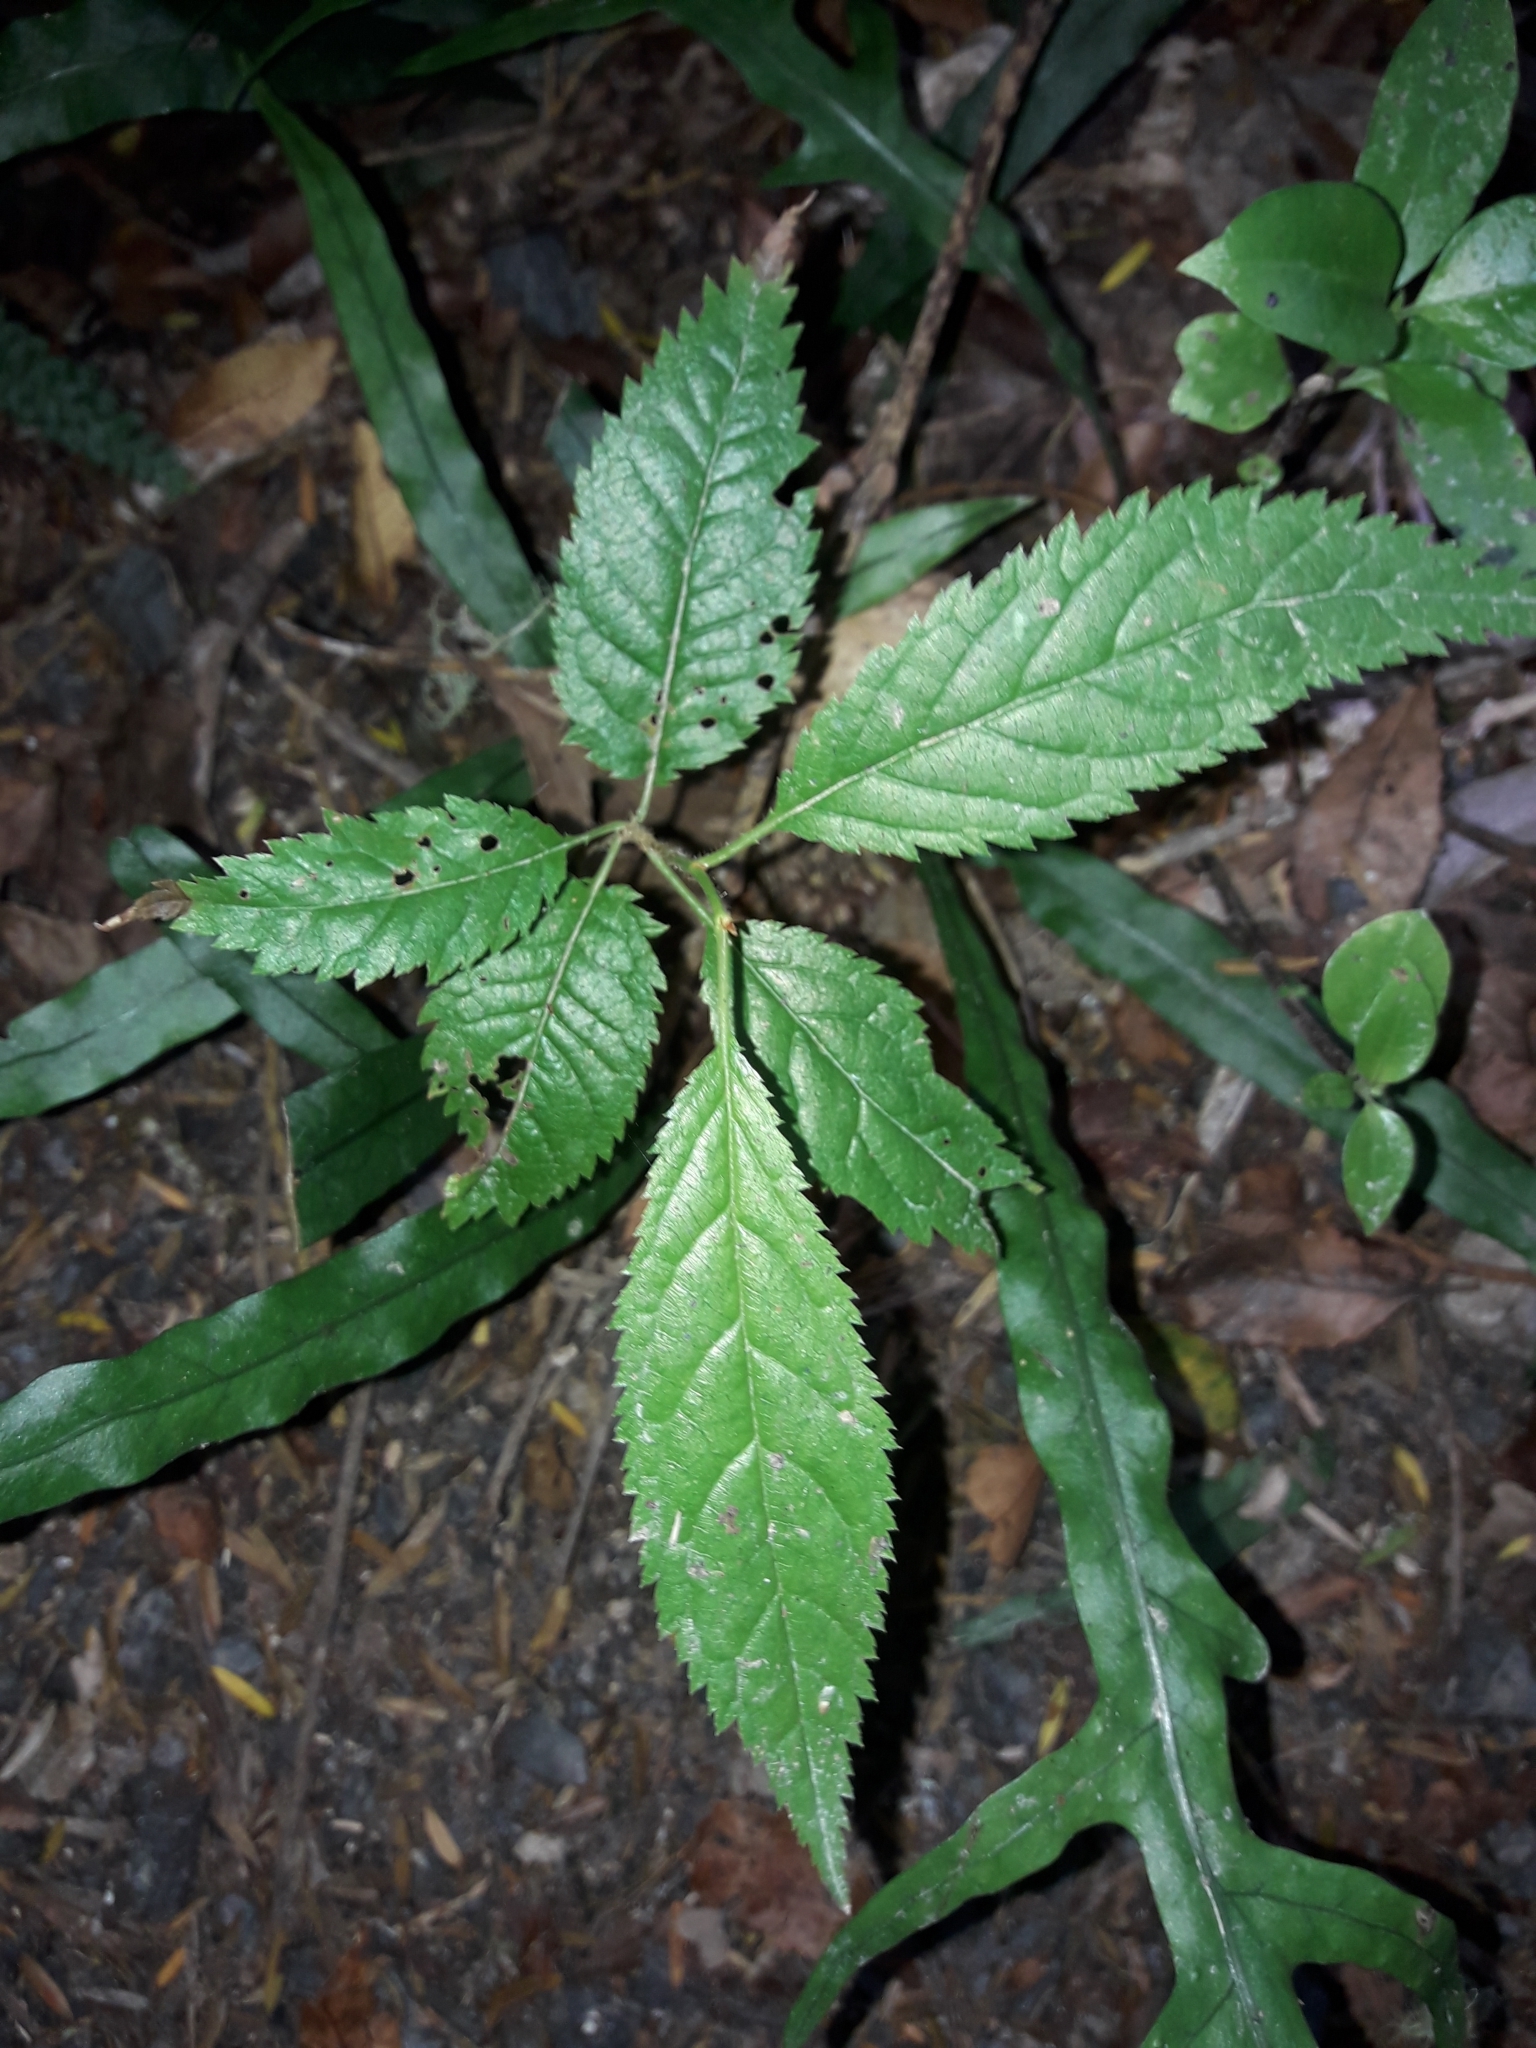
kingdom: Plantae
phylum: Tracheophyta
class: Magnoliopsida
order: Rosales
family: Rosaceae
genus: Prunus
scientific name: Prunus campanulata
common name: Taiwan flowering cherry
